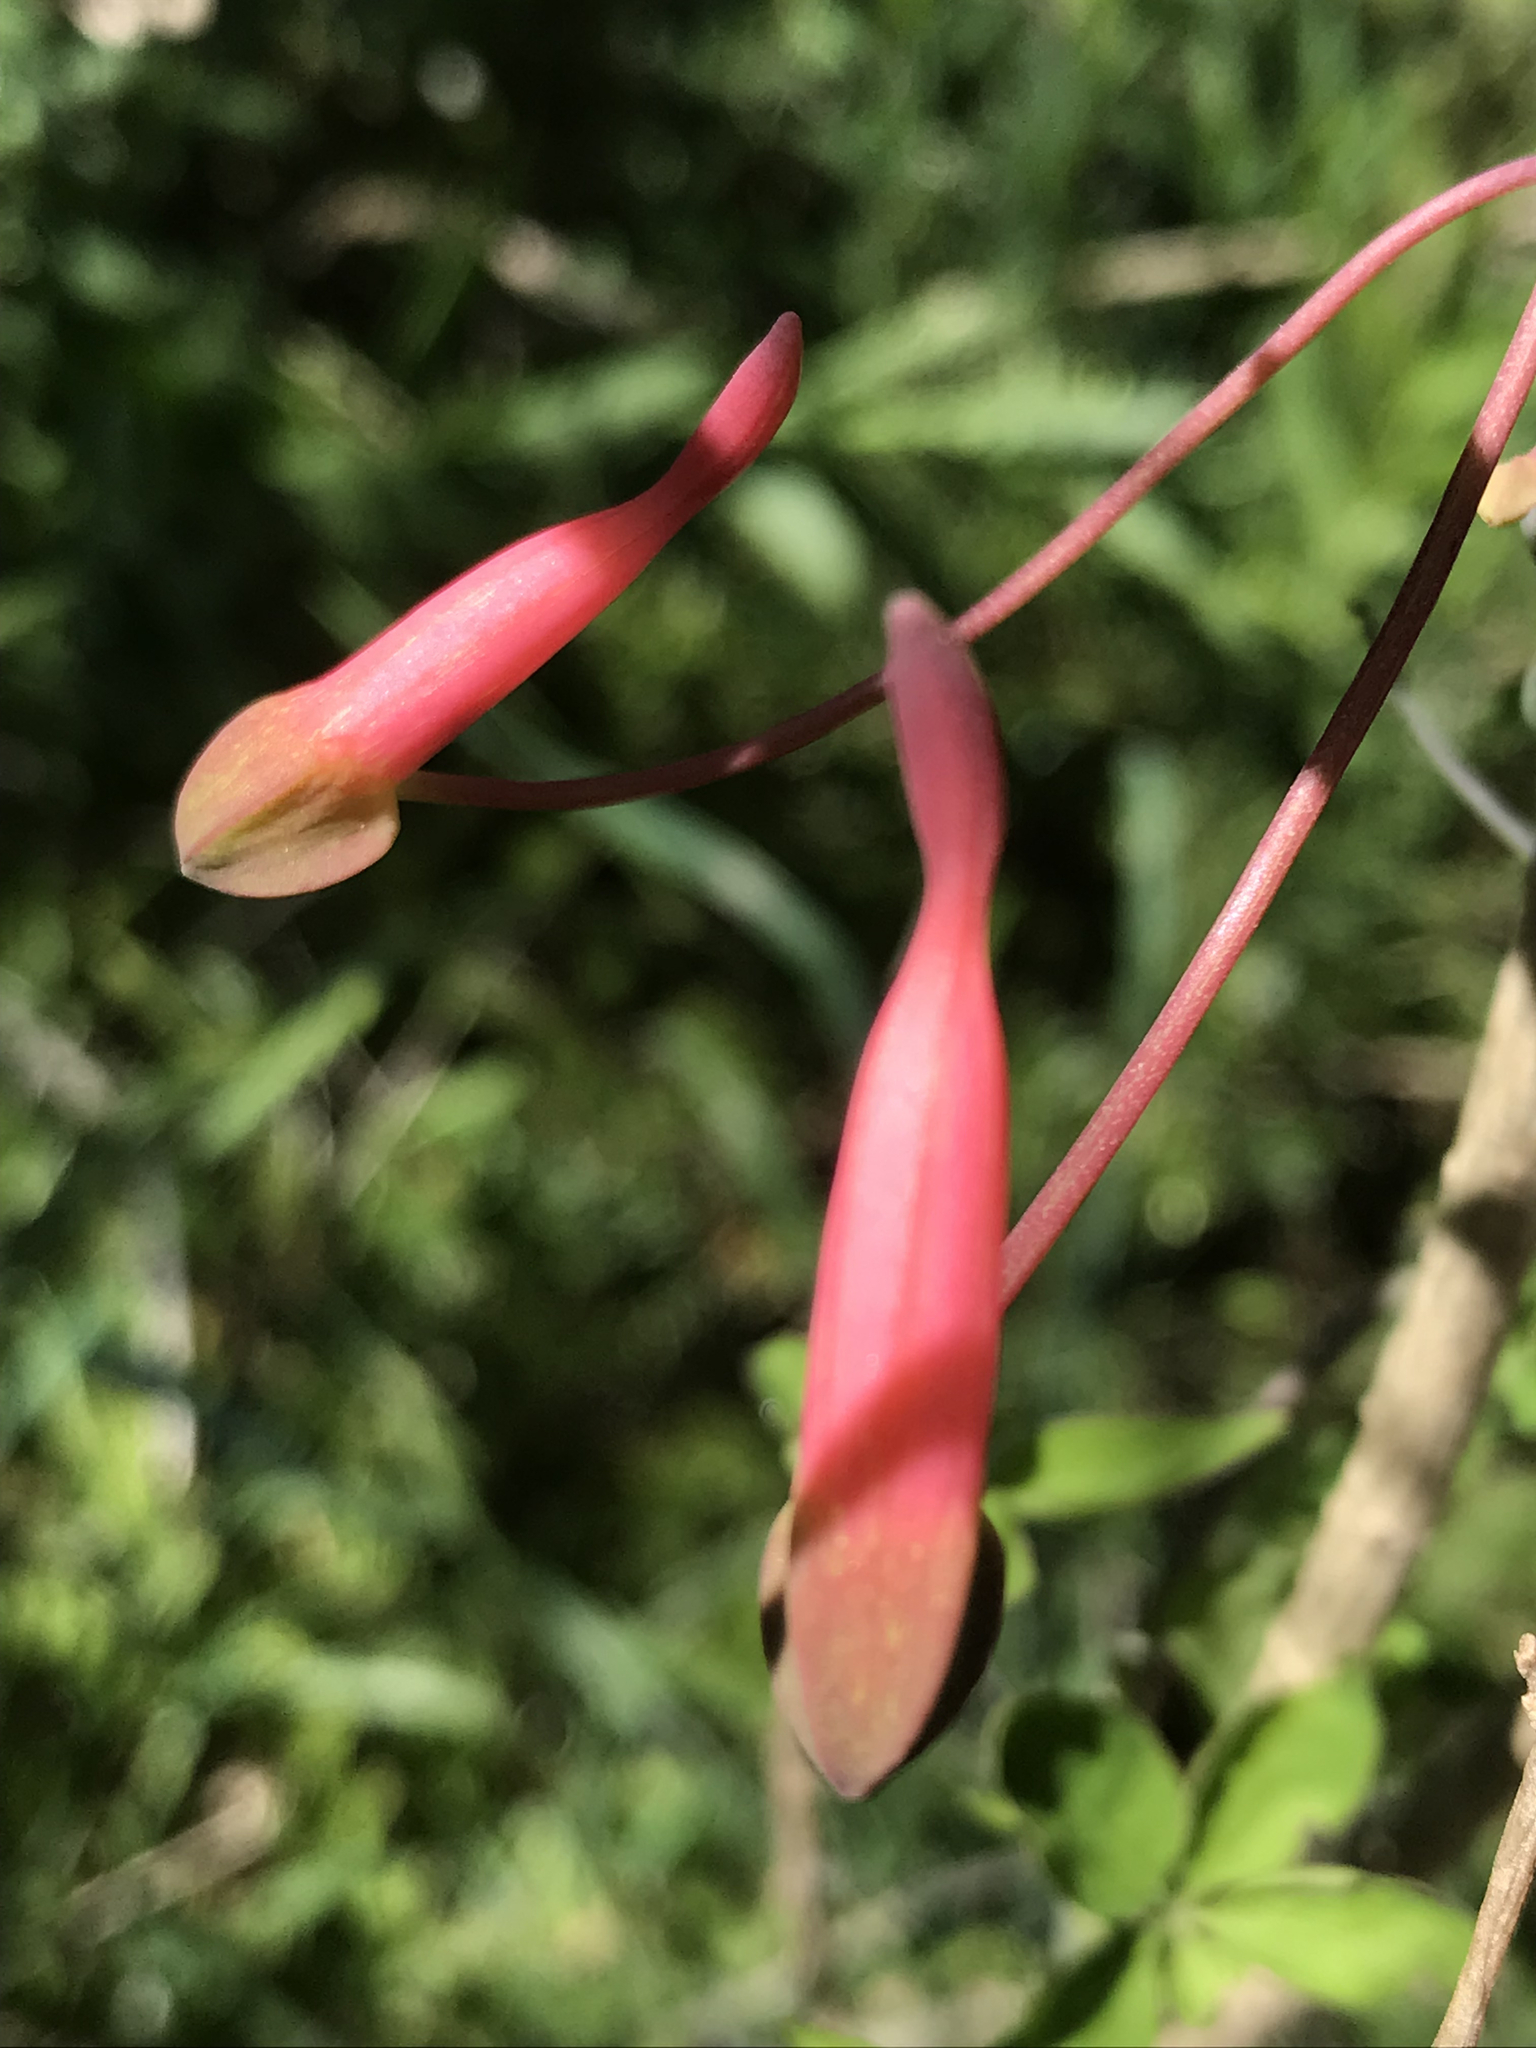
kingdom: Plantae
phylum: Tracheophyta
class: Magnoliopsida
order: Brassicales
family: Tropaeolaceae
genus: Tropaeolum
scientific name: Tropaeolum pentaphyllum
